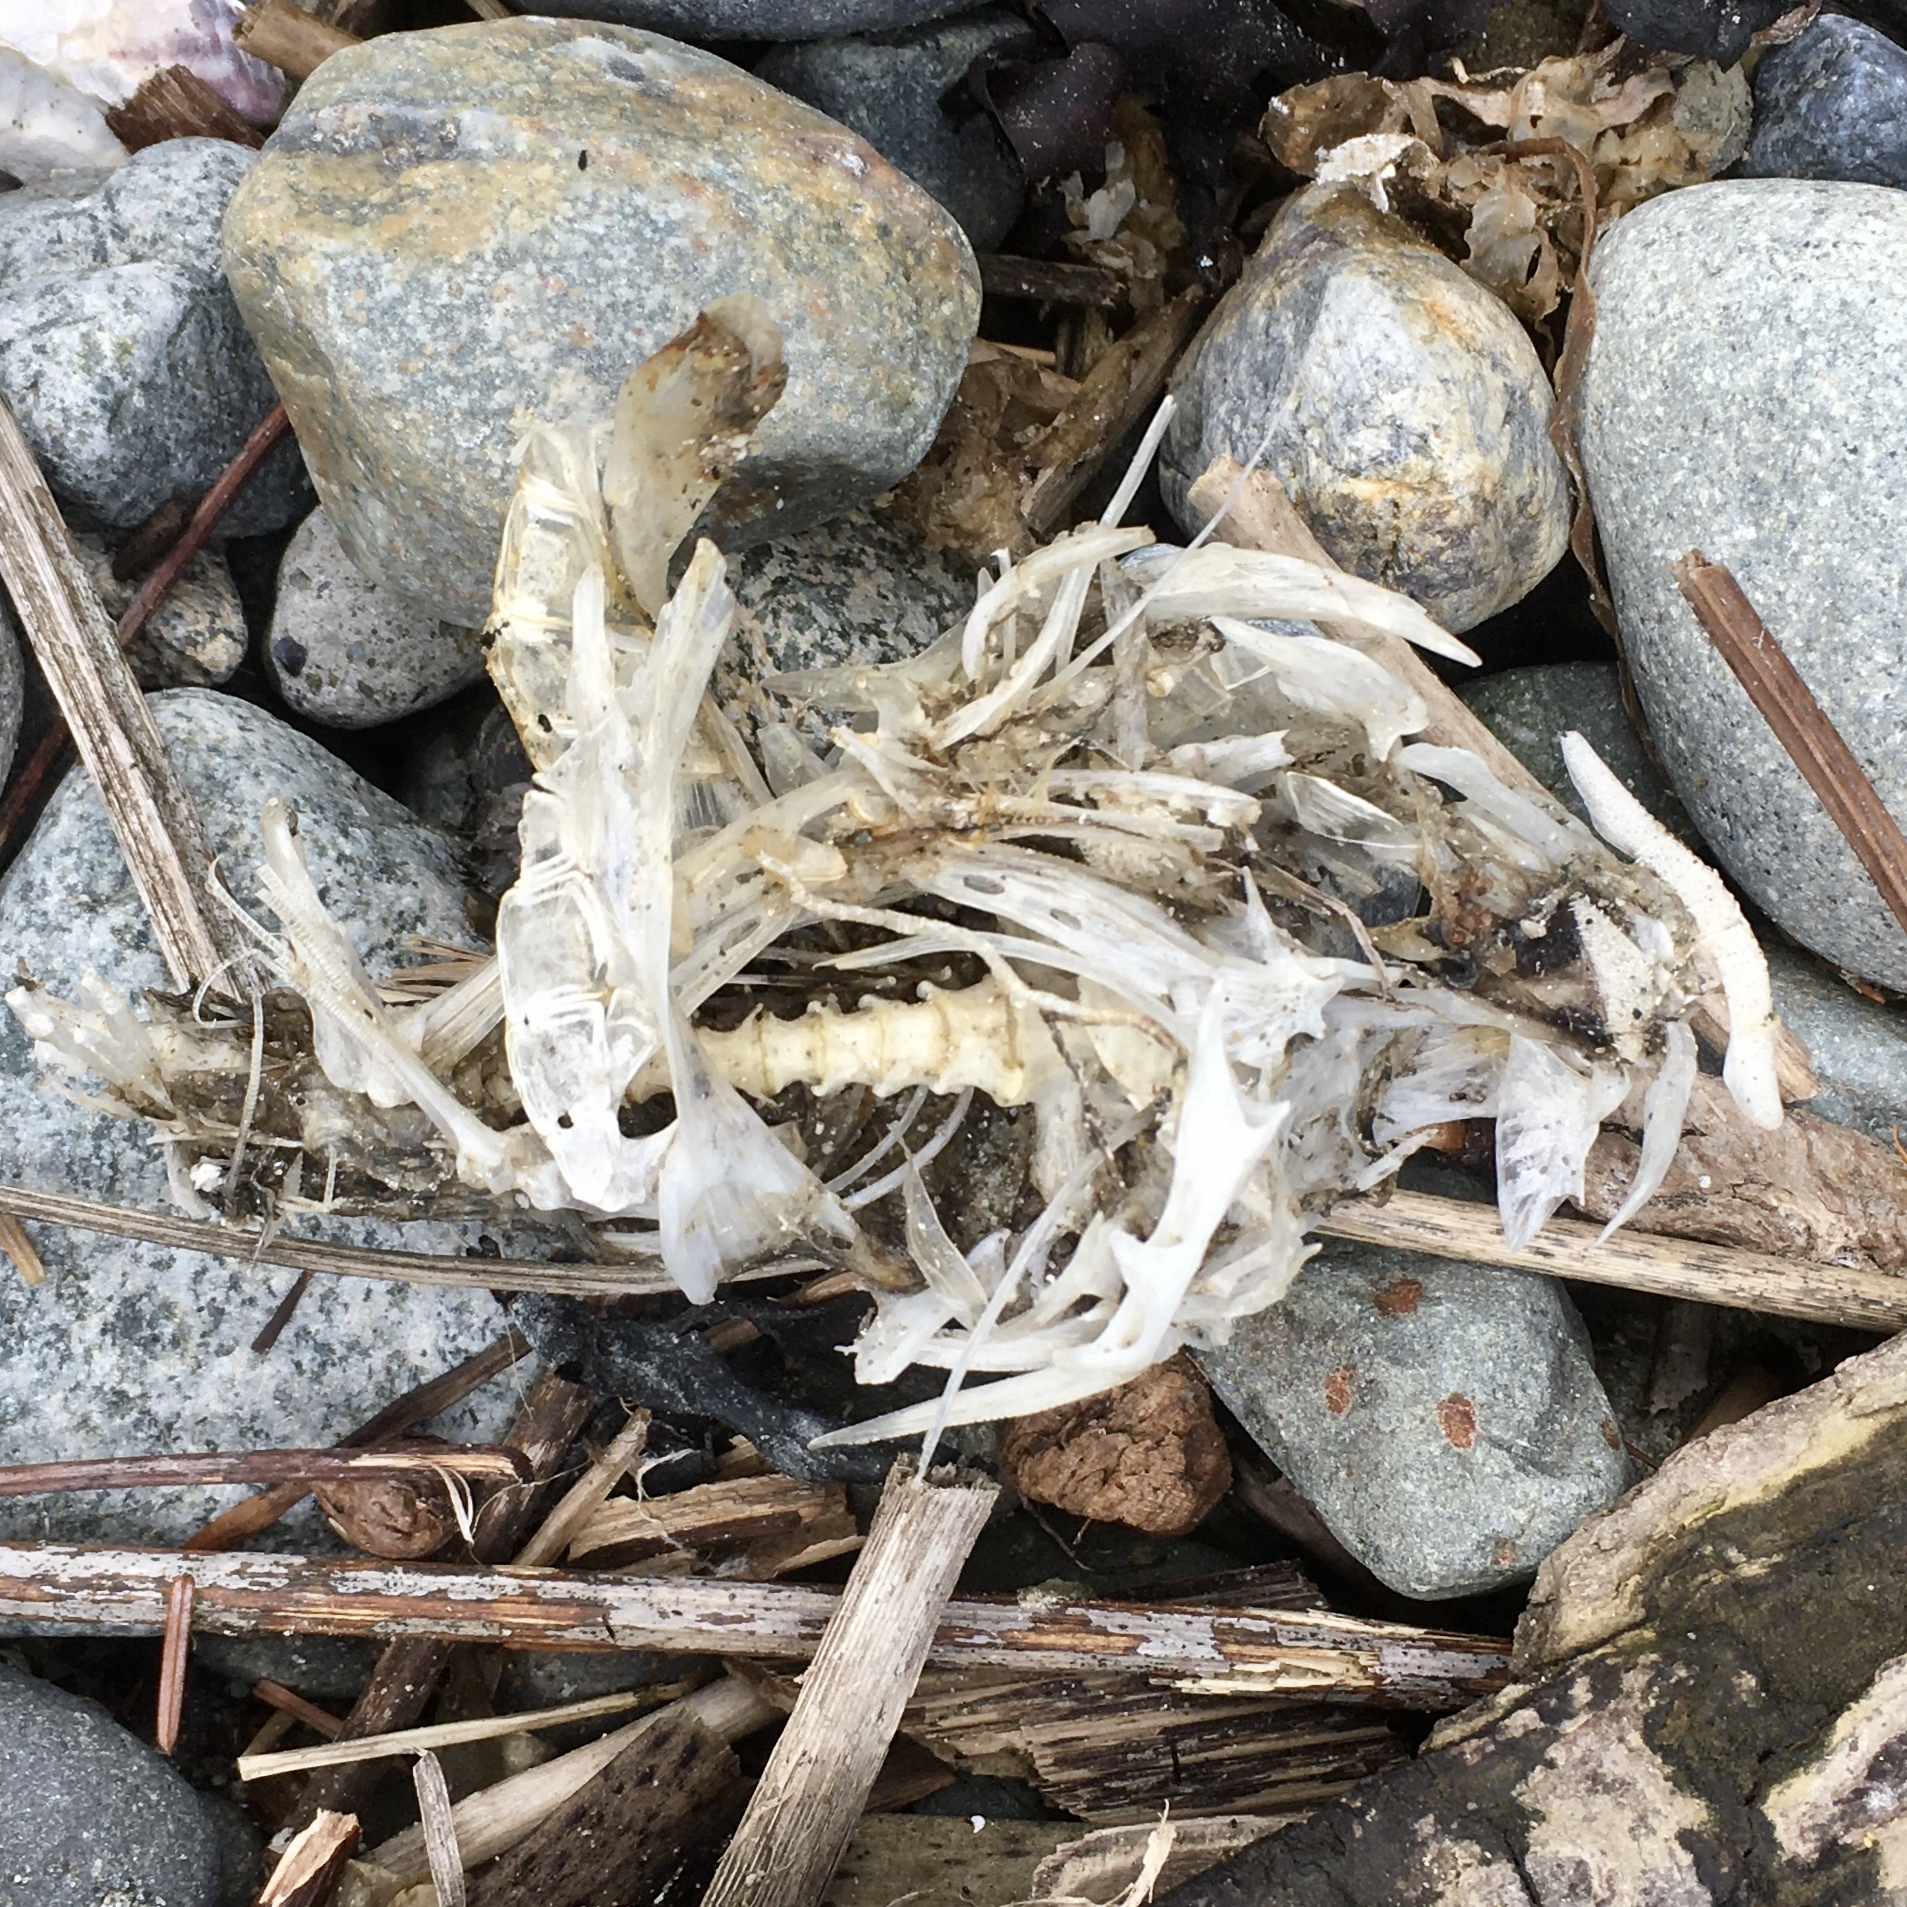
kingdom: Animalia
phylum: Chordata
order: Scorpaeniformes
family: Cottidae
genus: Enophrys
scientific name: Enophrys bison
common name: Buffalo sculpin
